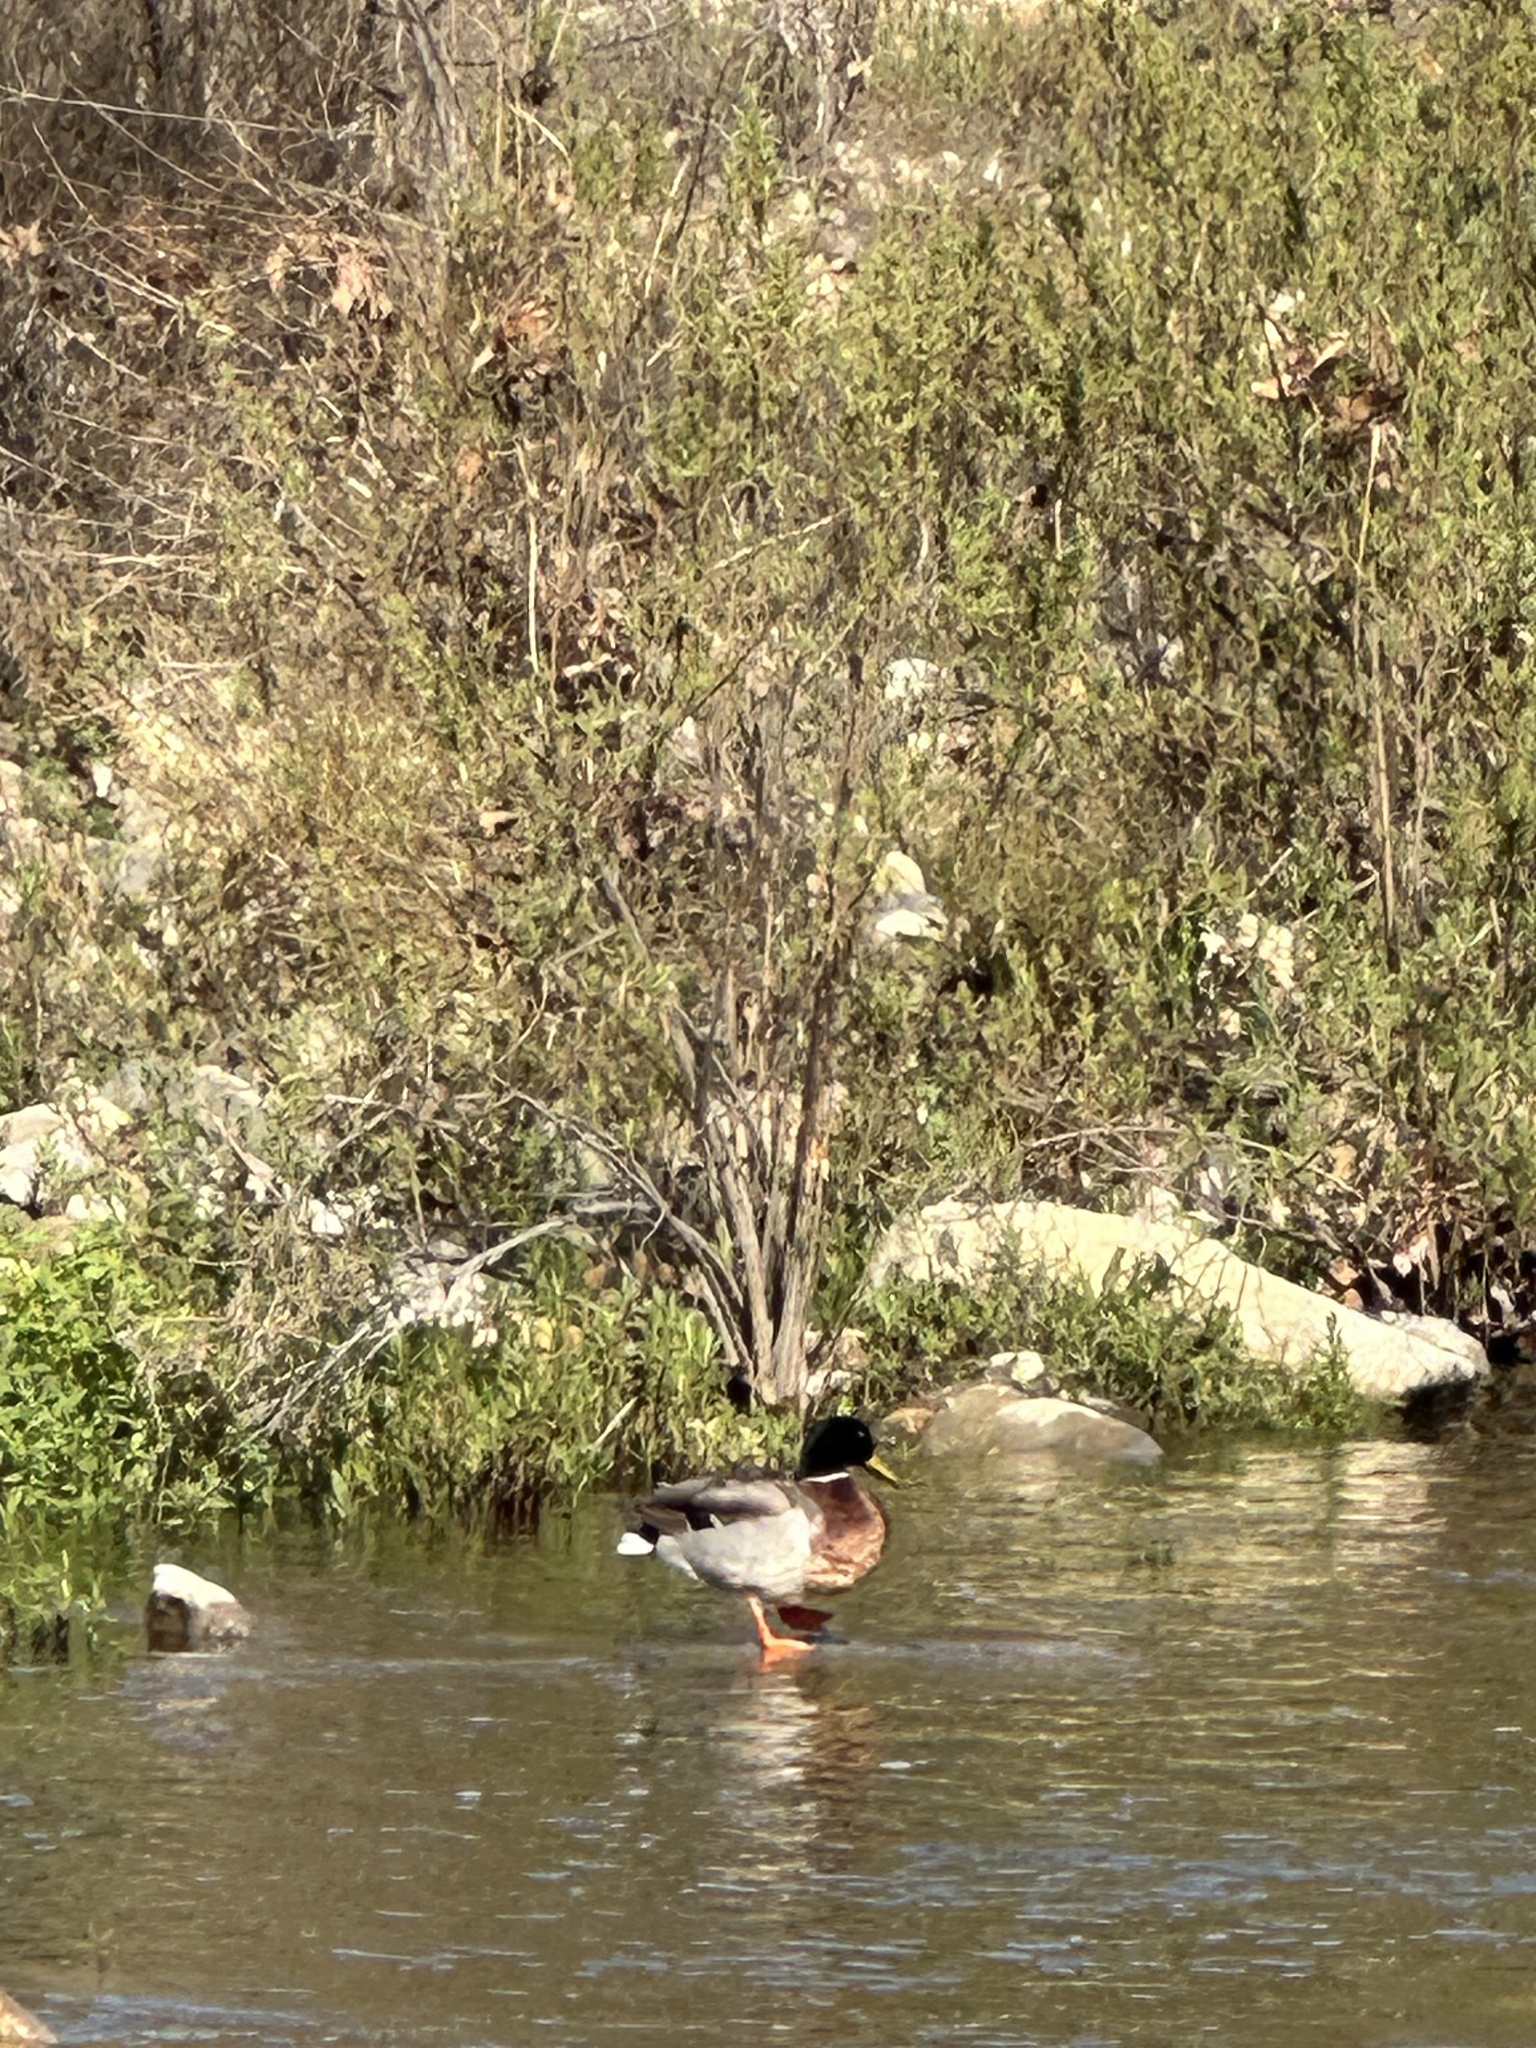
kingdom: Animalia
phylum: Chordata
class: Aves
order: Anseriformes
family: Anatidae
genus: Anas
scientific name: Anas platyrhynchos
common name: Mallard
